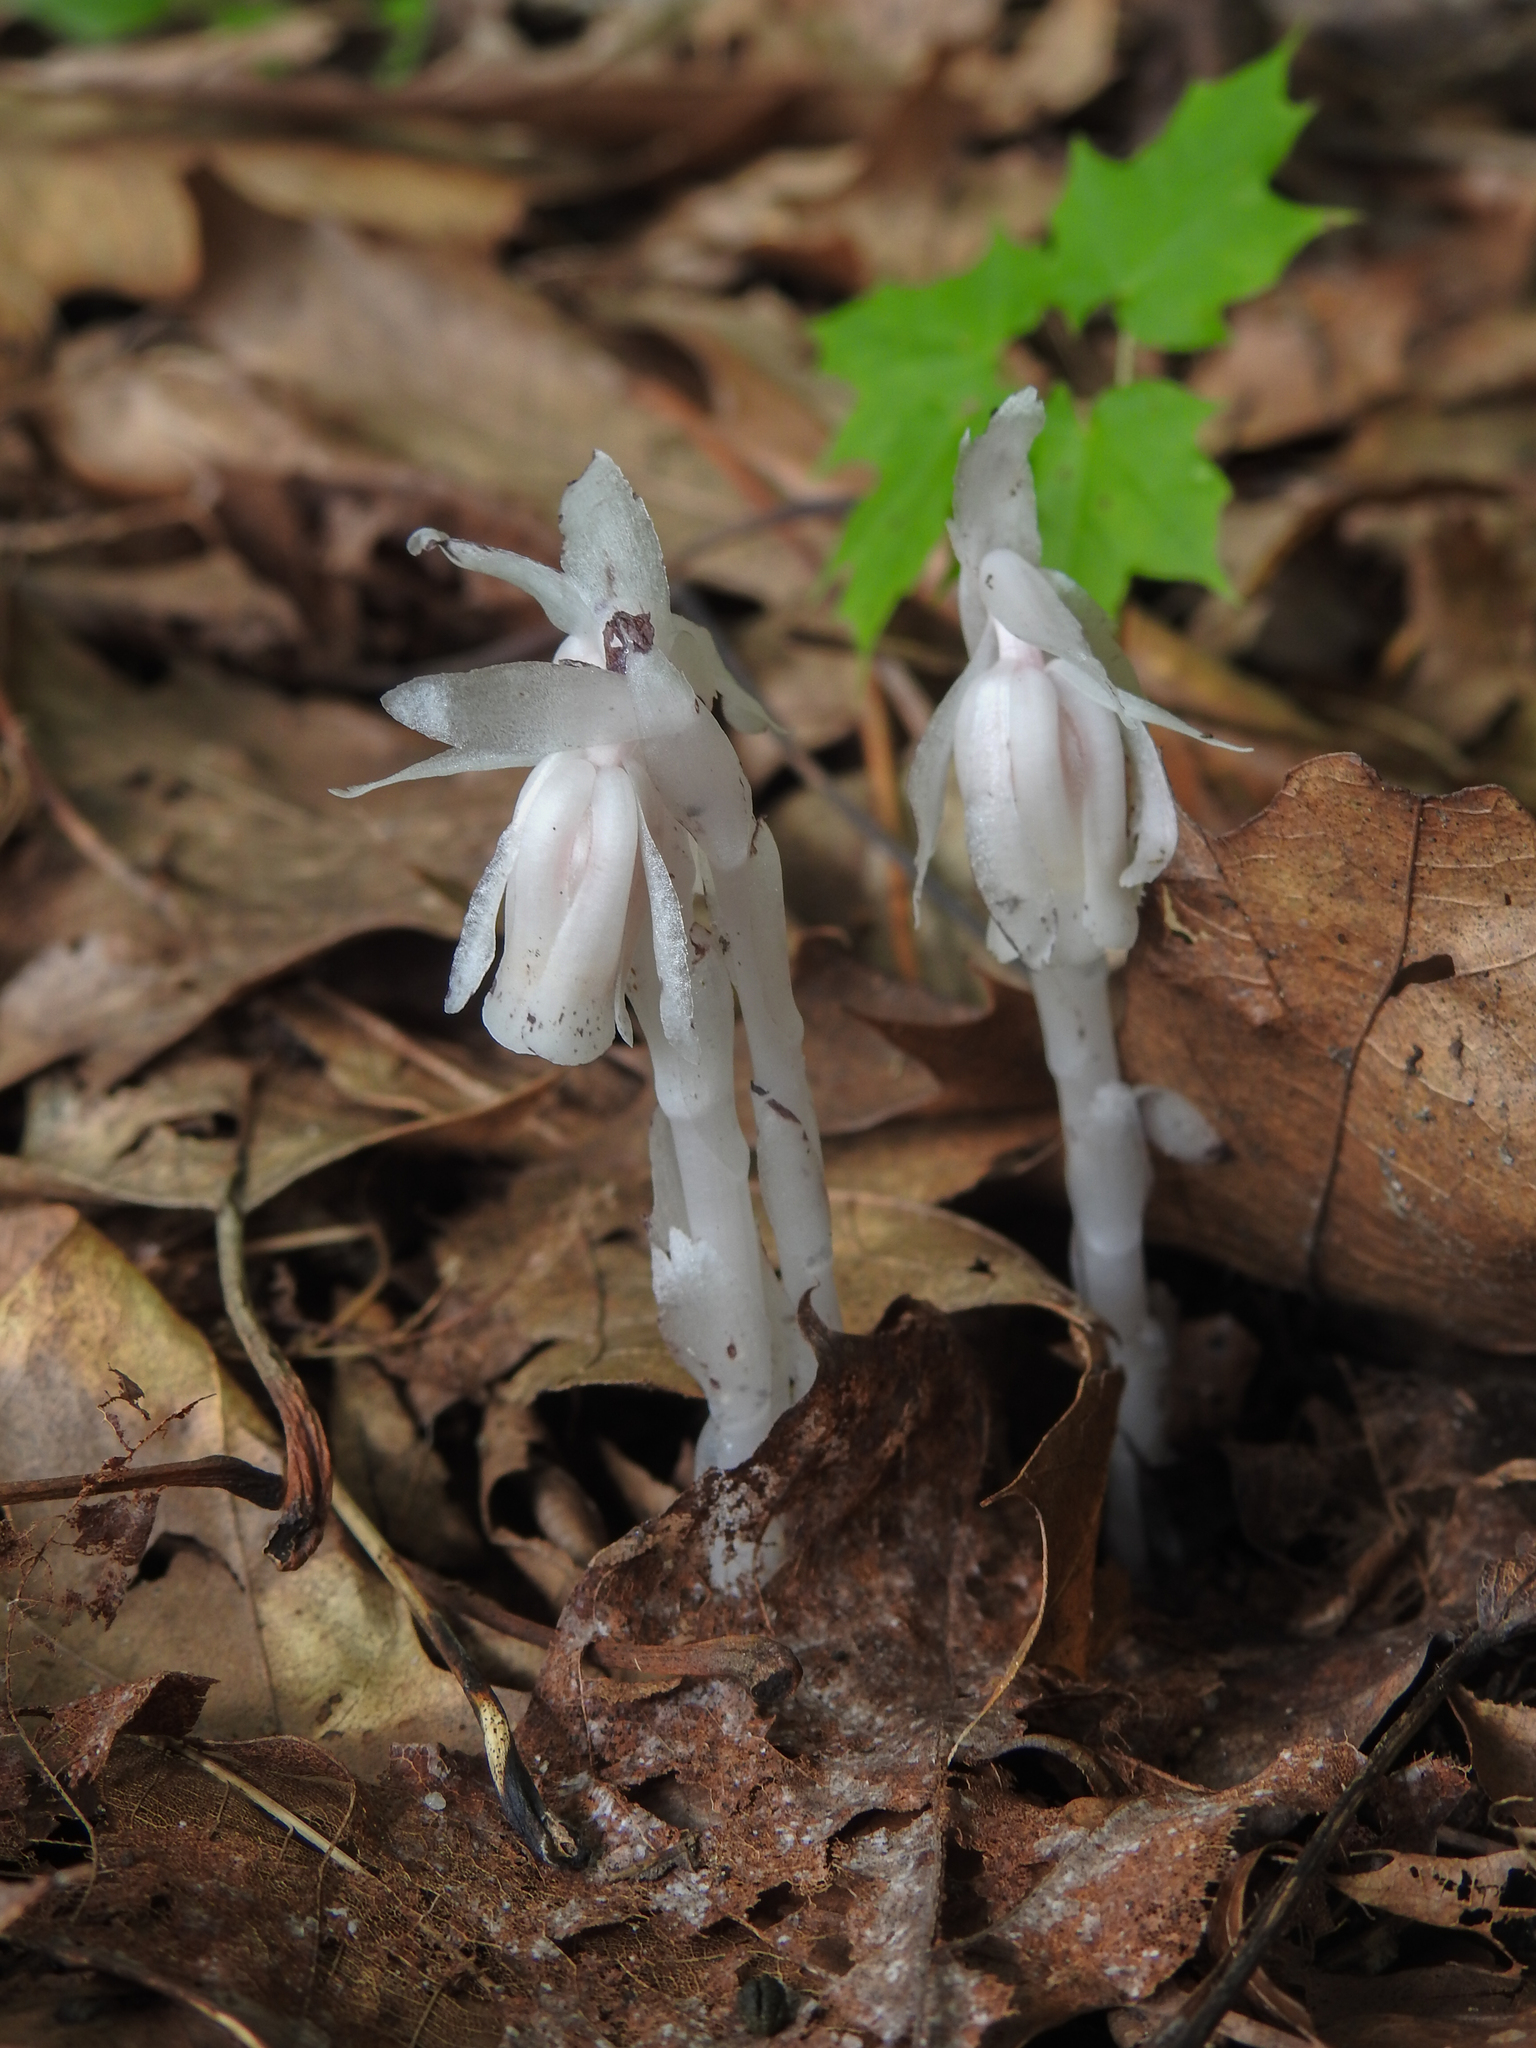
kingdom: Plantae
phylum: Tracheophyta
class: Magnoliopsida
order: Ericales
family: Ericaceae
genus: Monotropa
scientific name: Monotropa uniflora
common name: Convulsion root
